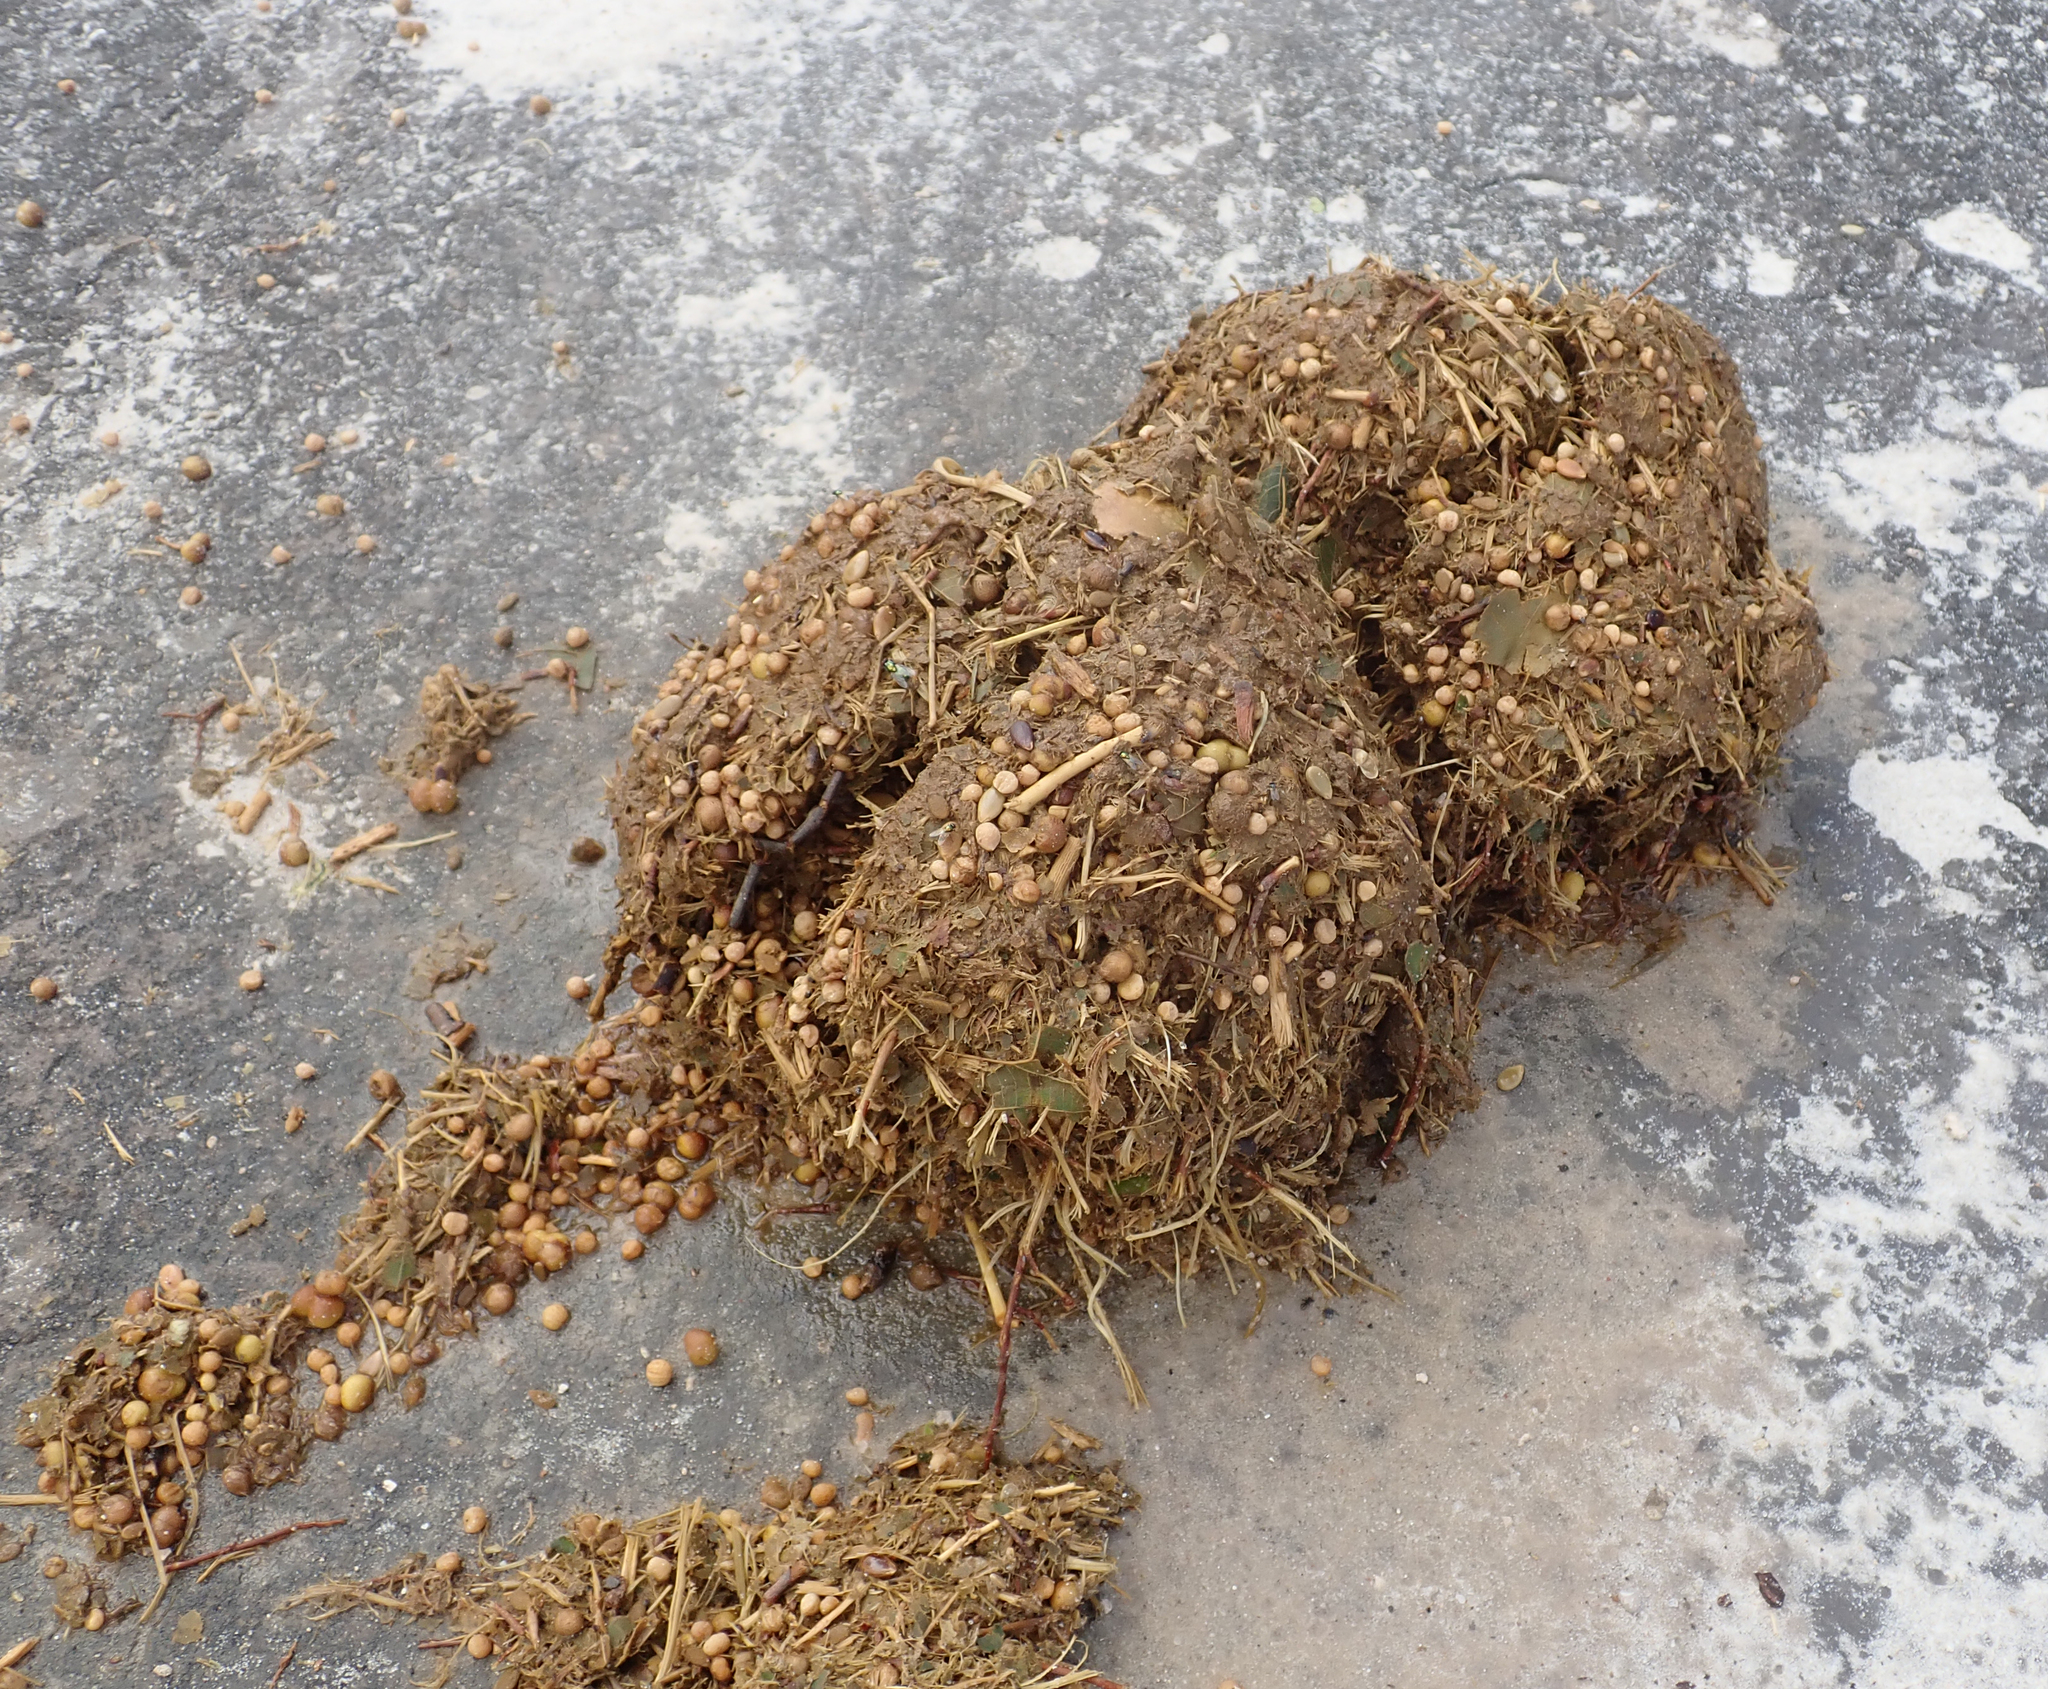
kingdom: Animalia
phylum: Chordata
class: Mammalia
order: Proboscidea
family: Elephantidae
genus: Loxodonta
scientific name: Loxodonta africana
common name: African elephant
